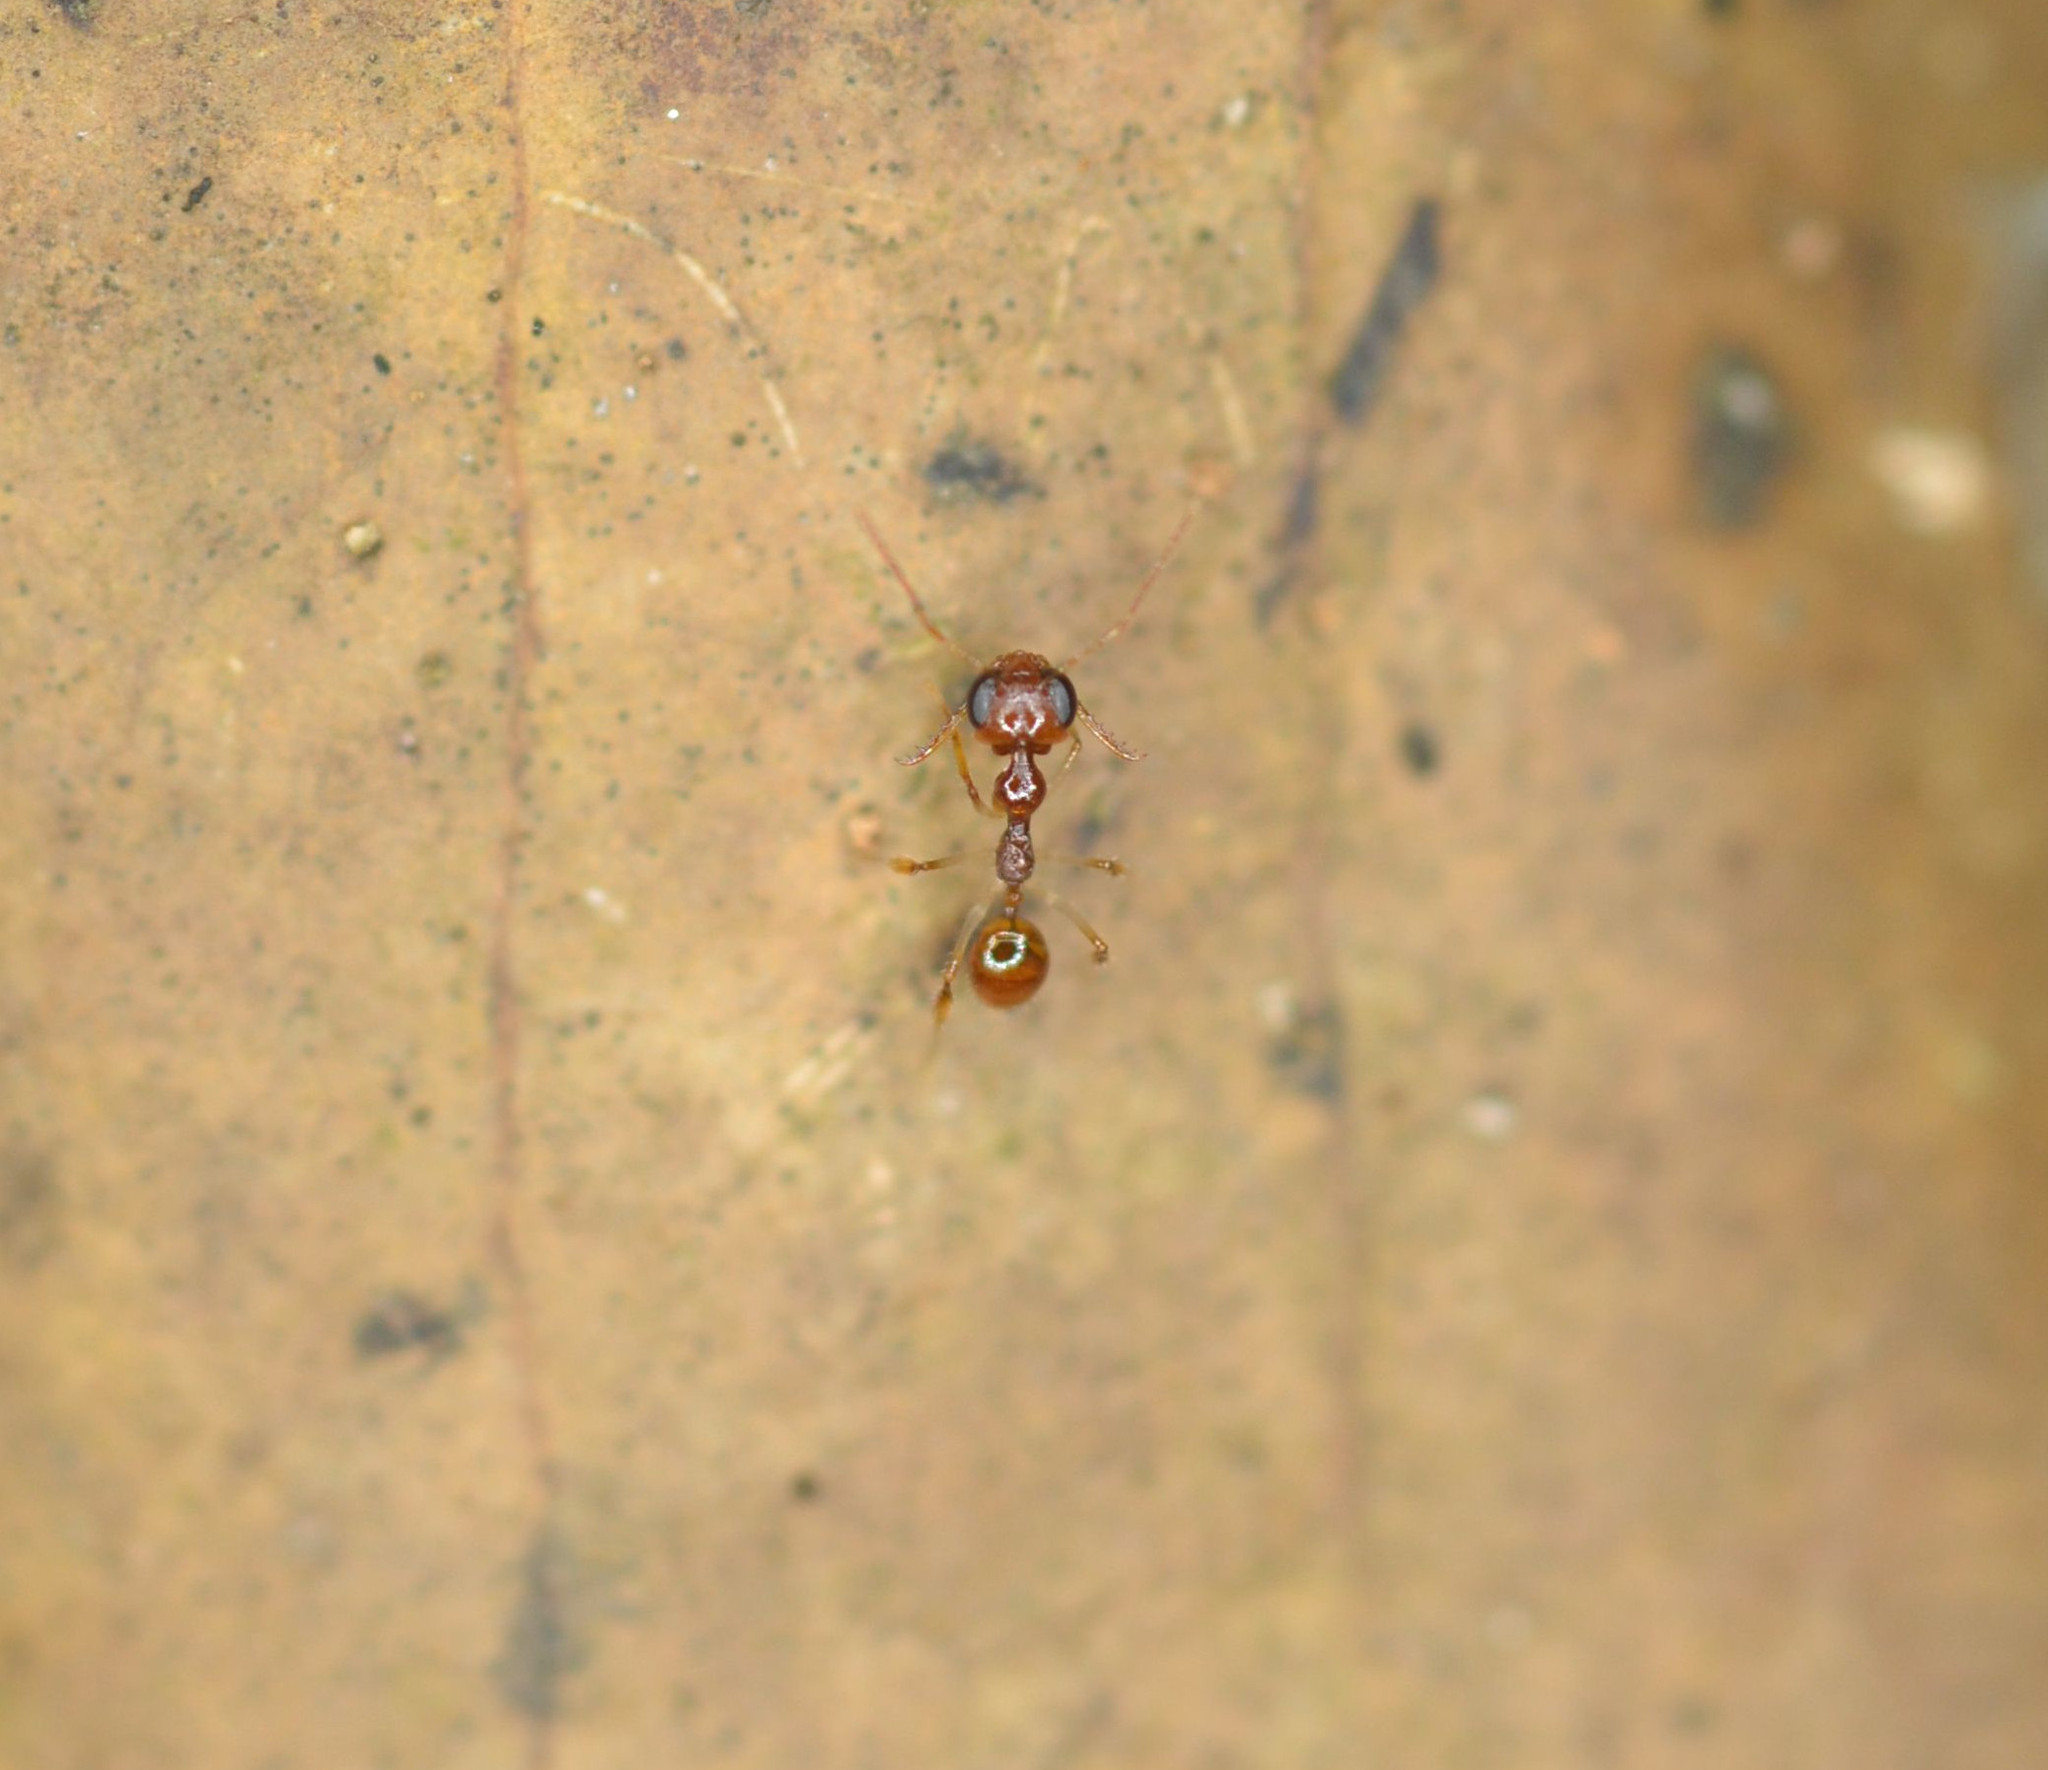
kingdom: Animalia
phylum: Arthropoda
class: Insecta
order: Hymenoptera
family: Formicidae
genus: Myrmoteras
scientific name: Myrmoteras jaitrongi
